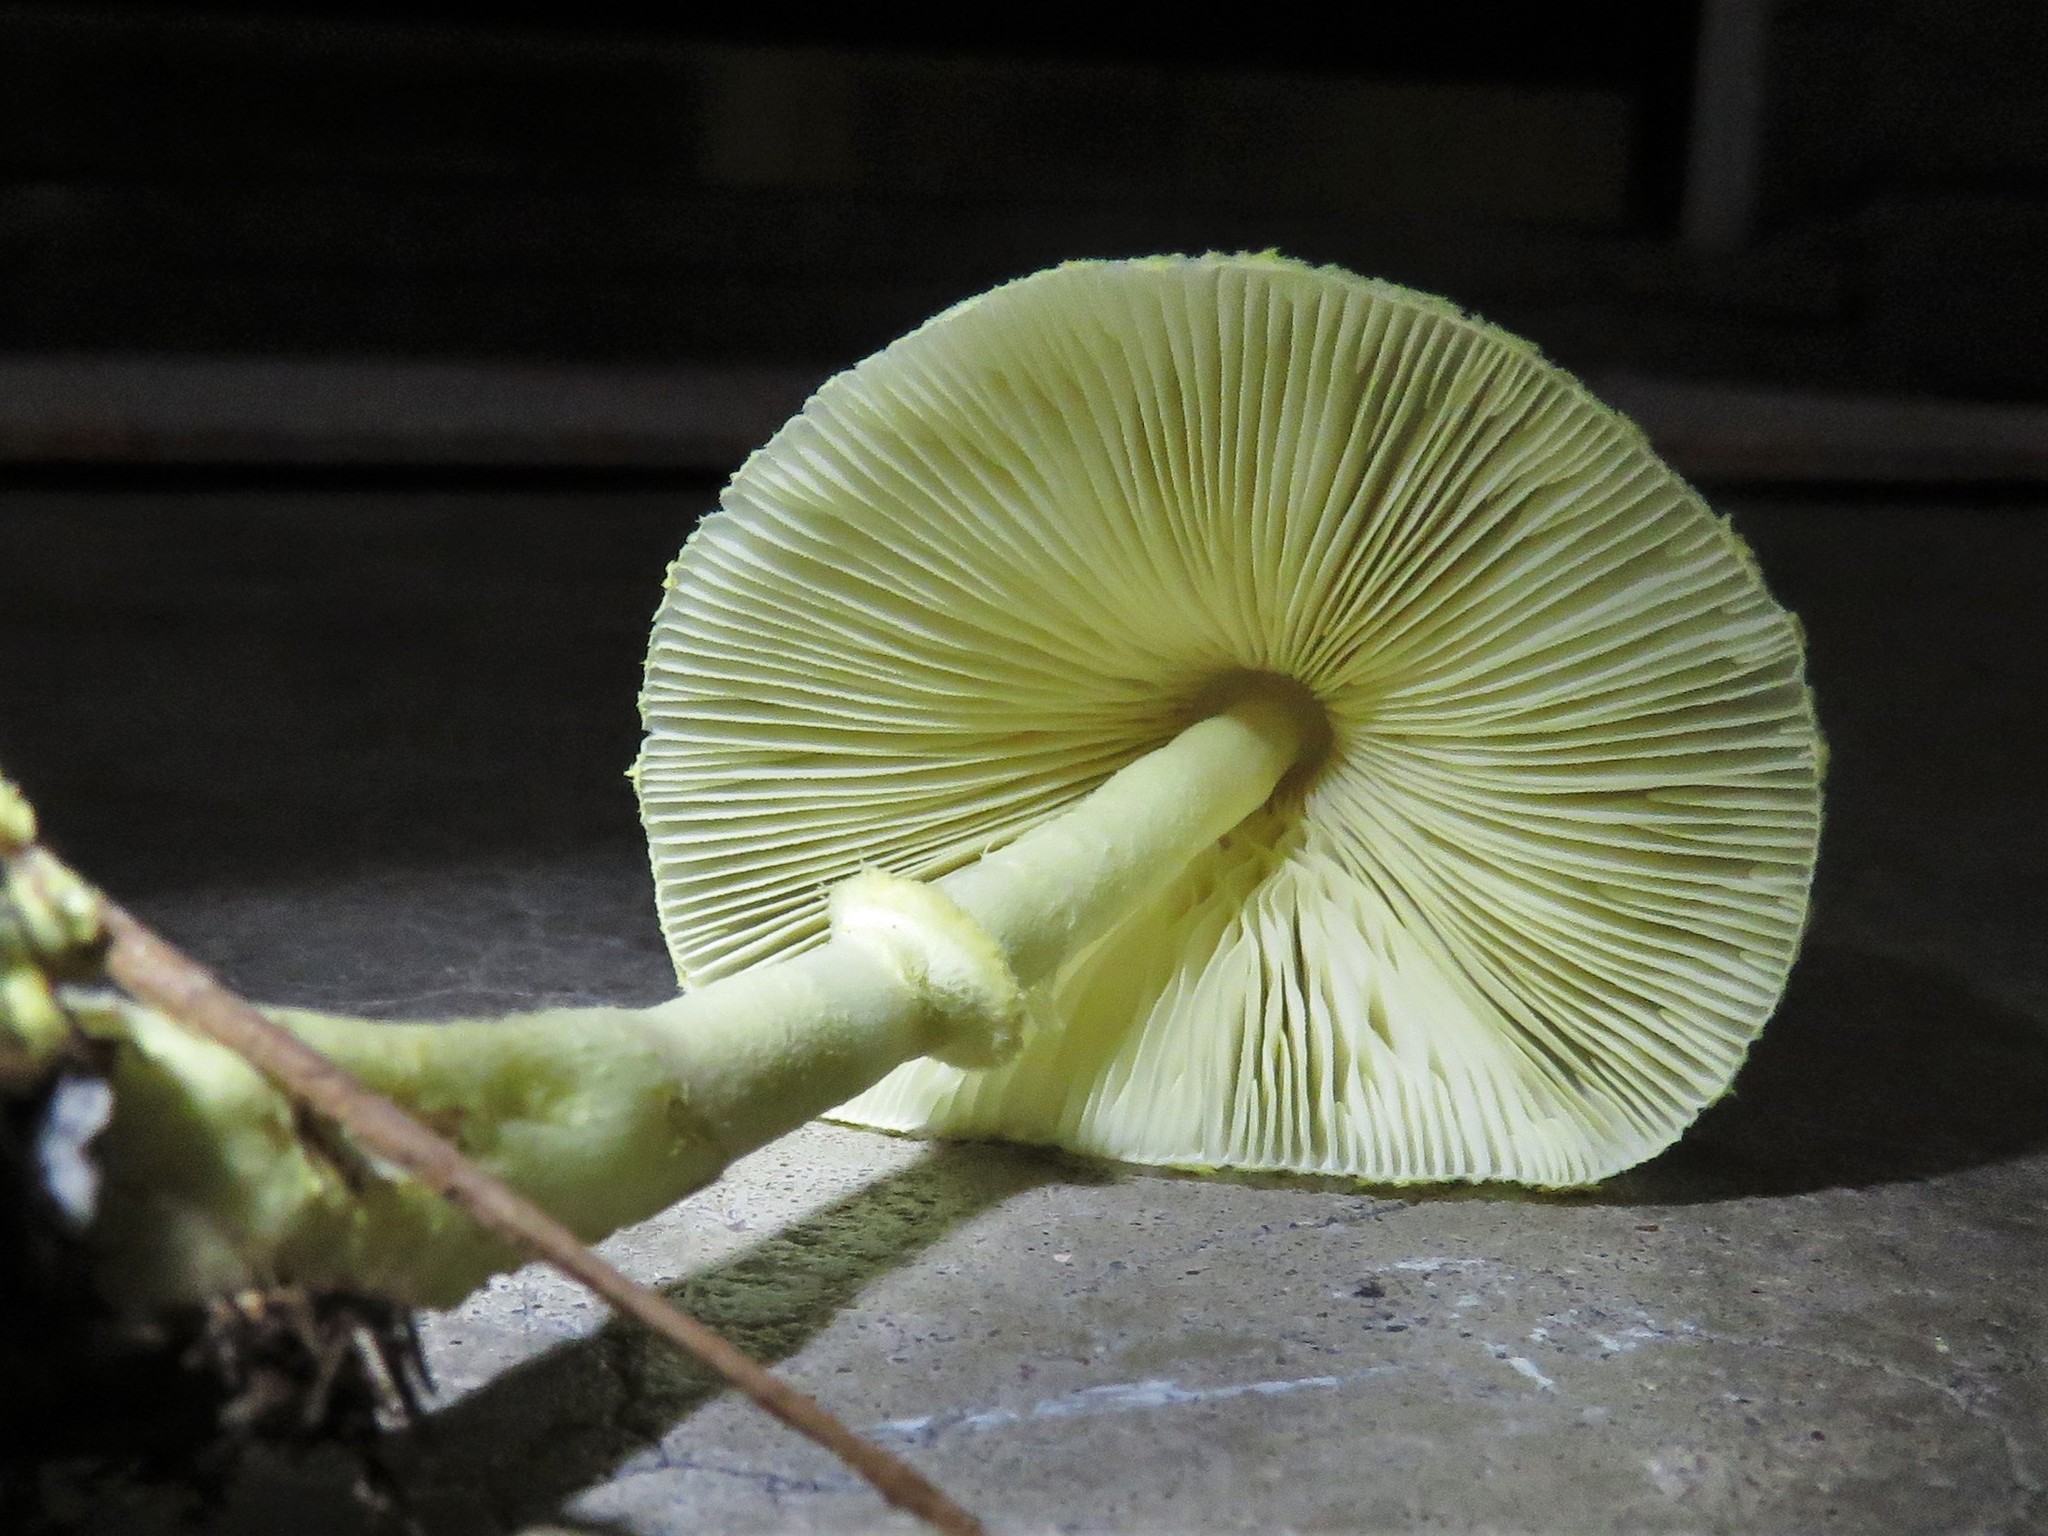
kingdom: Fungi
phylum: Basidiomycota
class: Agaricomycetes
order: Agaricales
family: Agaricaceae
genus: Leucocoprinus
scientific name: Leucocoprinus birnbaumii
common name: Plantpot dapperling
